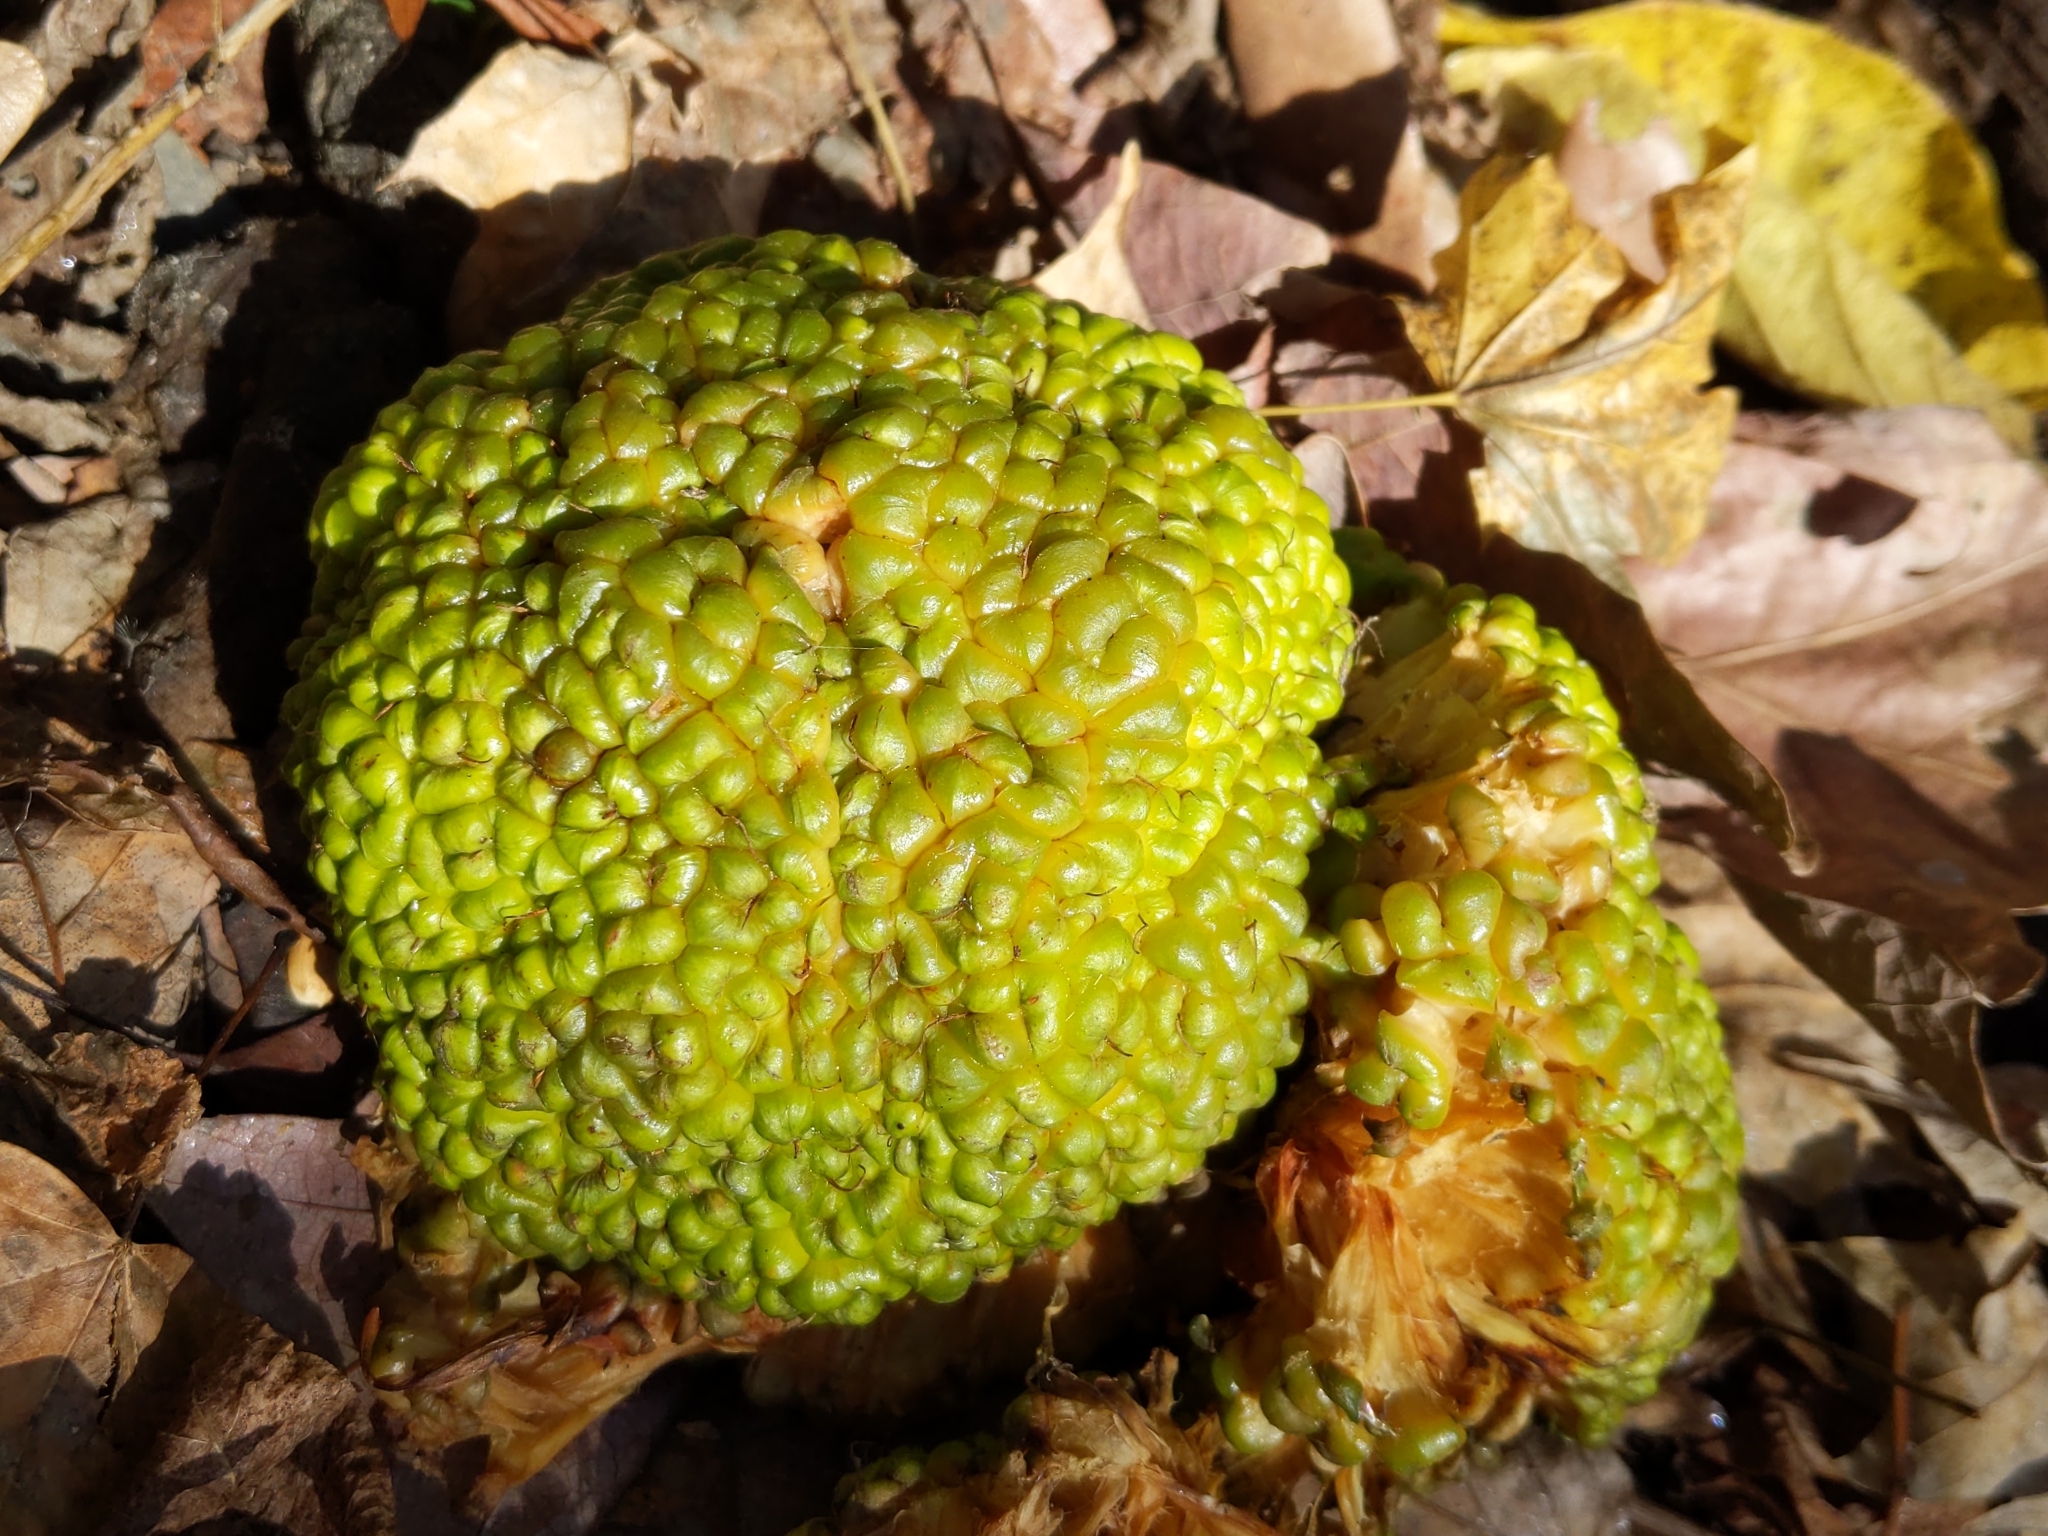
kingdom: Plantae
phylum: Tracheophyta
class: Magnoliopsida
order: Rosales
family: Moraceae
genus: Maclura
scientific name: Maclura pomifera
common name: Osage-orange
